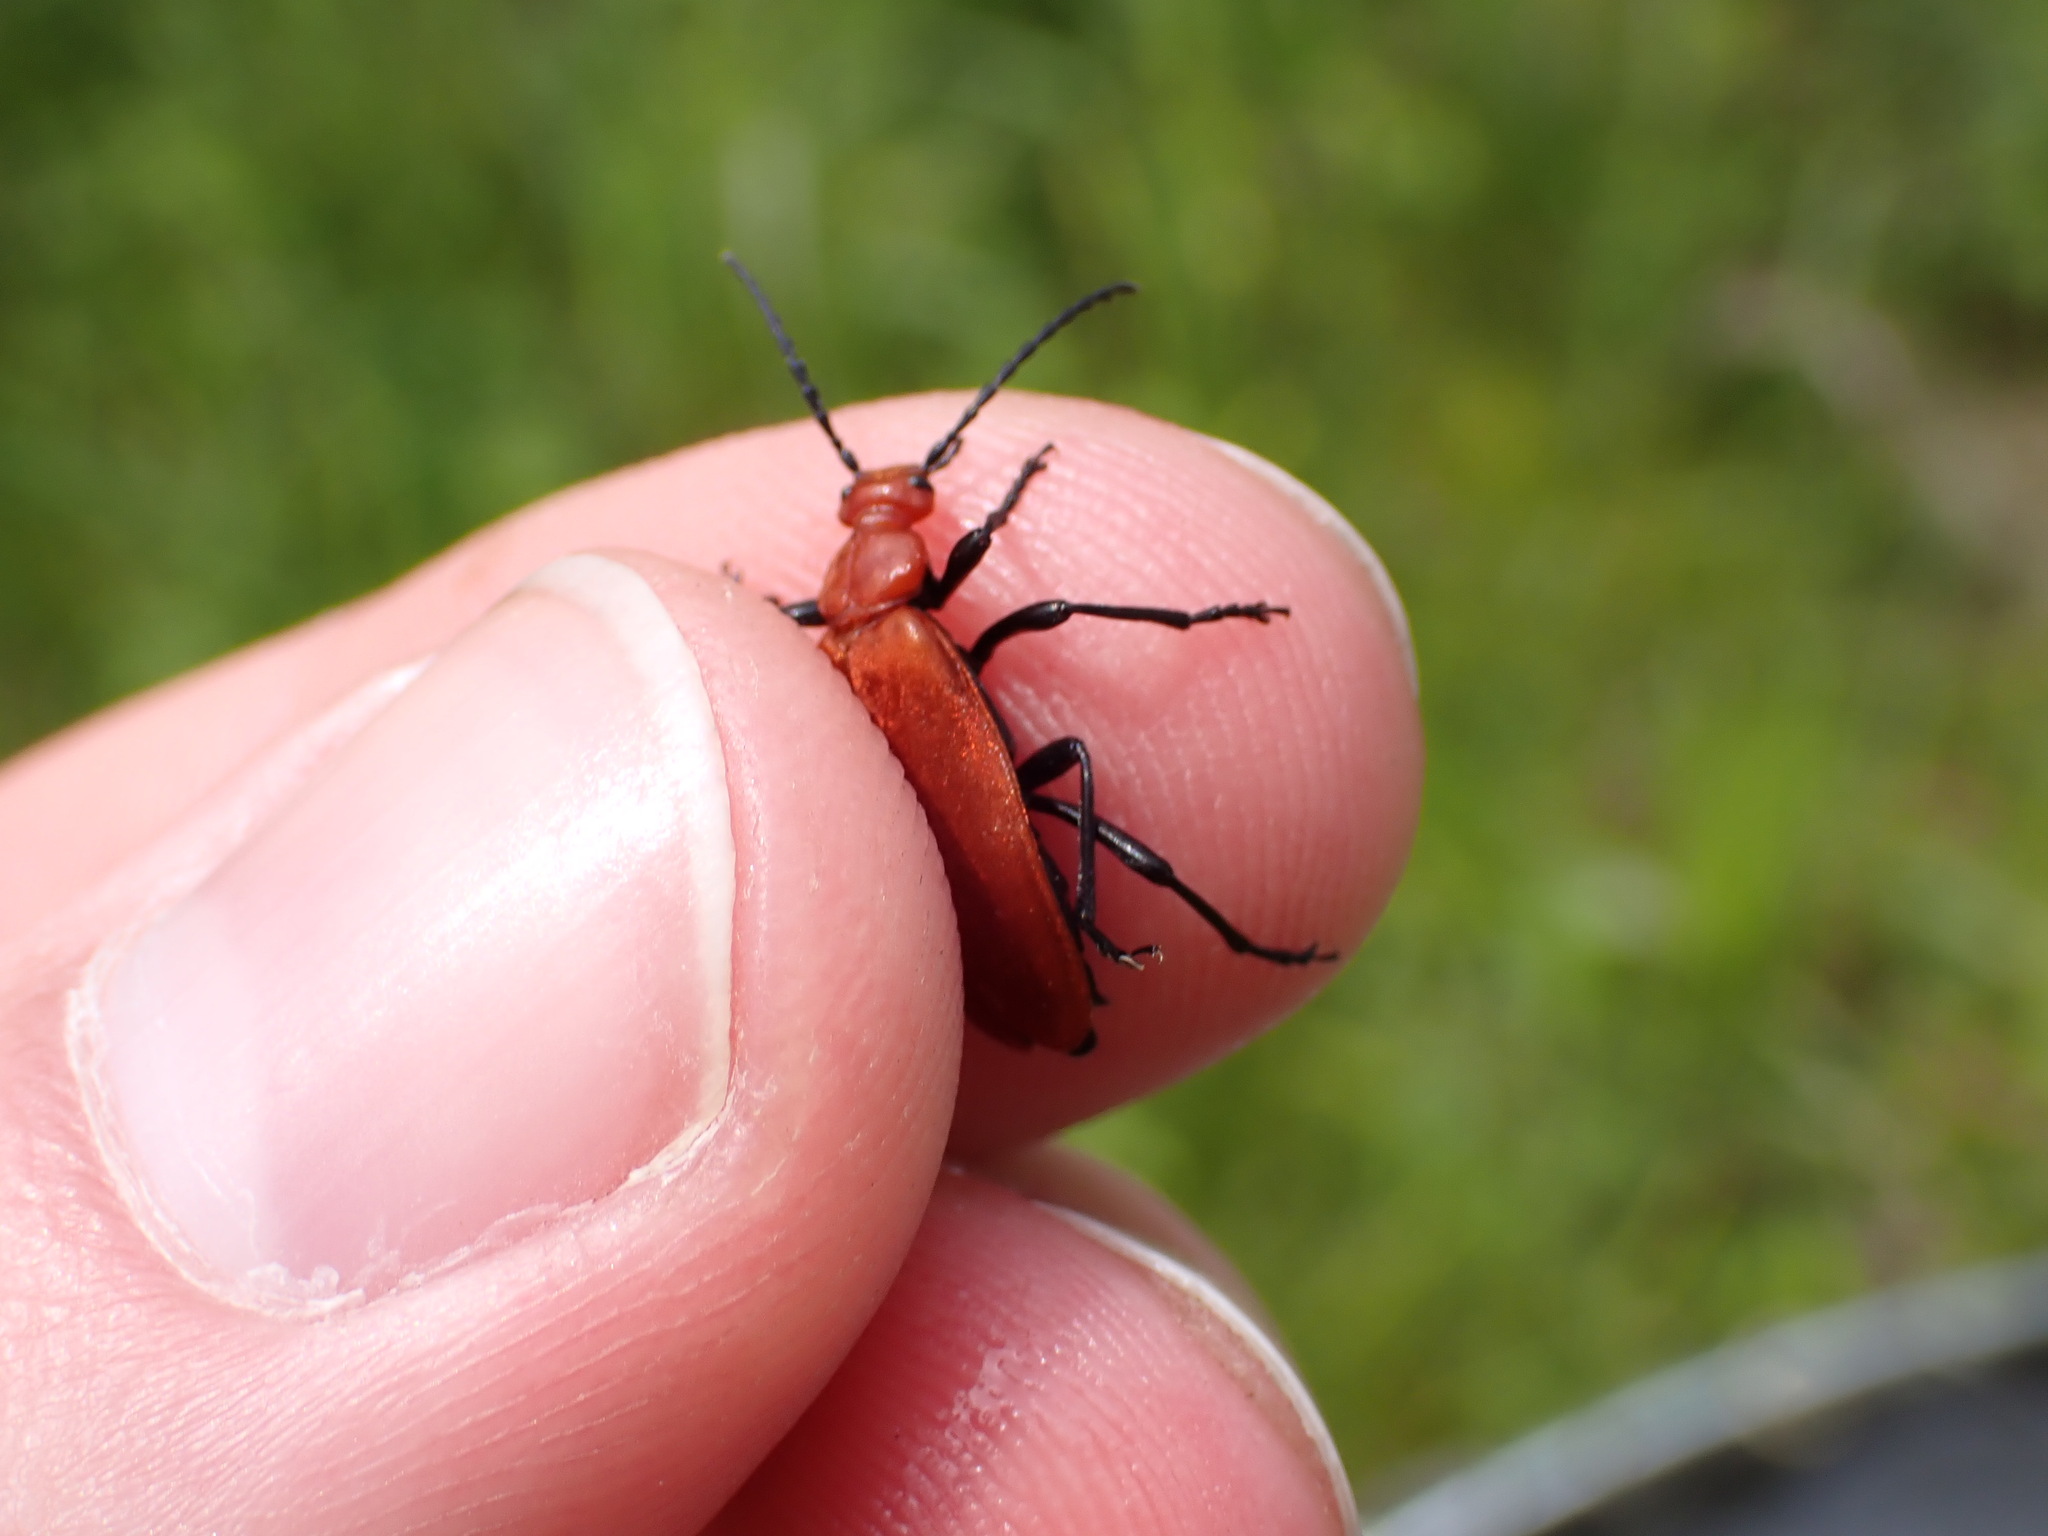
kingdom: Animalia
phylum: Arthropoda
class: Insecta
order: Coleoptera
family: Pyrochroidae
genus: Pyrochroa
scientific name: Pyrochroa serraticornis
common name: Red-headed cardinal beetle
